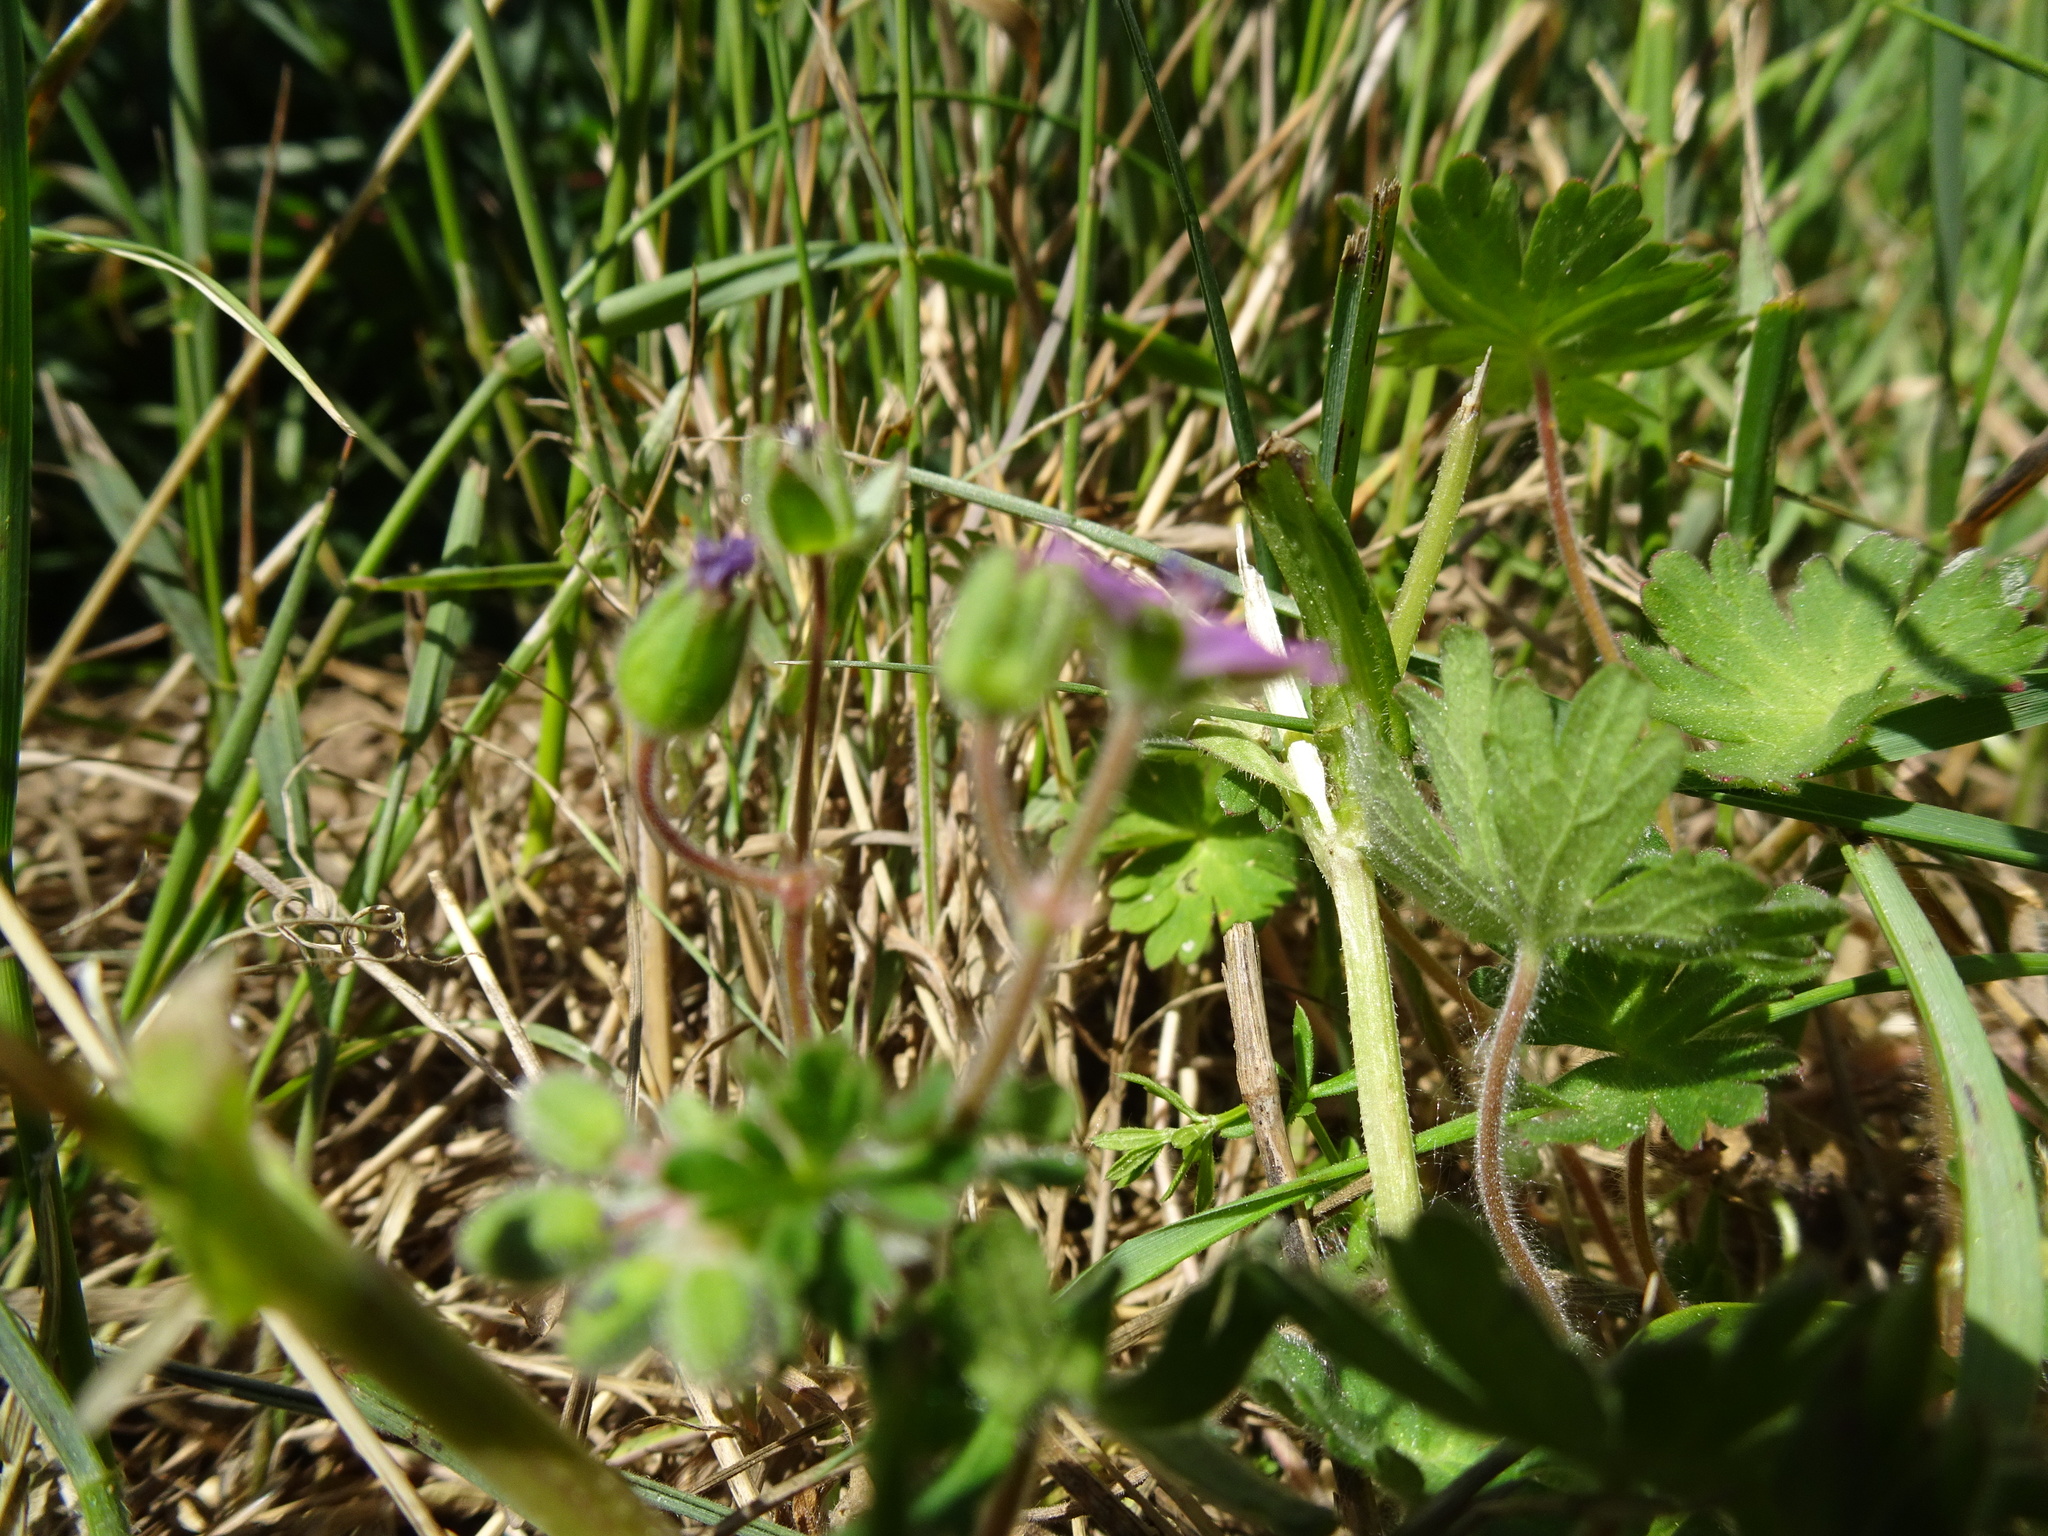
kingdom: Plantae
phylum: Tracheophyta
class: Magnoliopsida
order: Geraniales
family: Geraniaceae
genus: Geranium
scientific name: Geranium molle
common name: Dove's-foot crane's-bill
